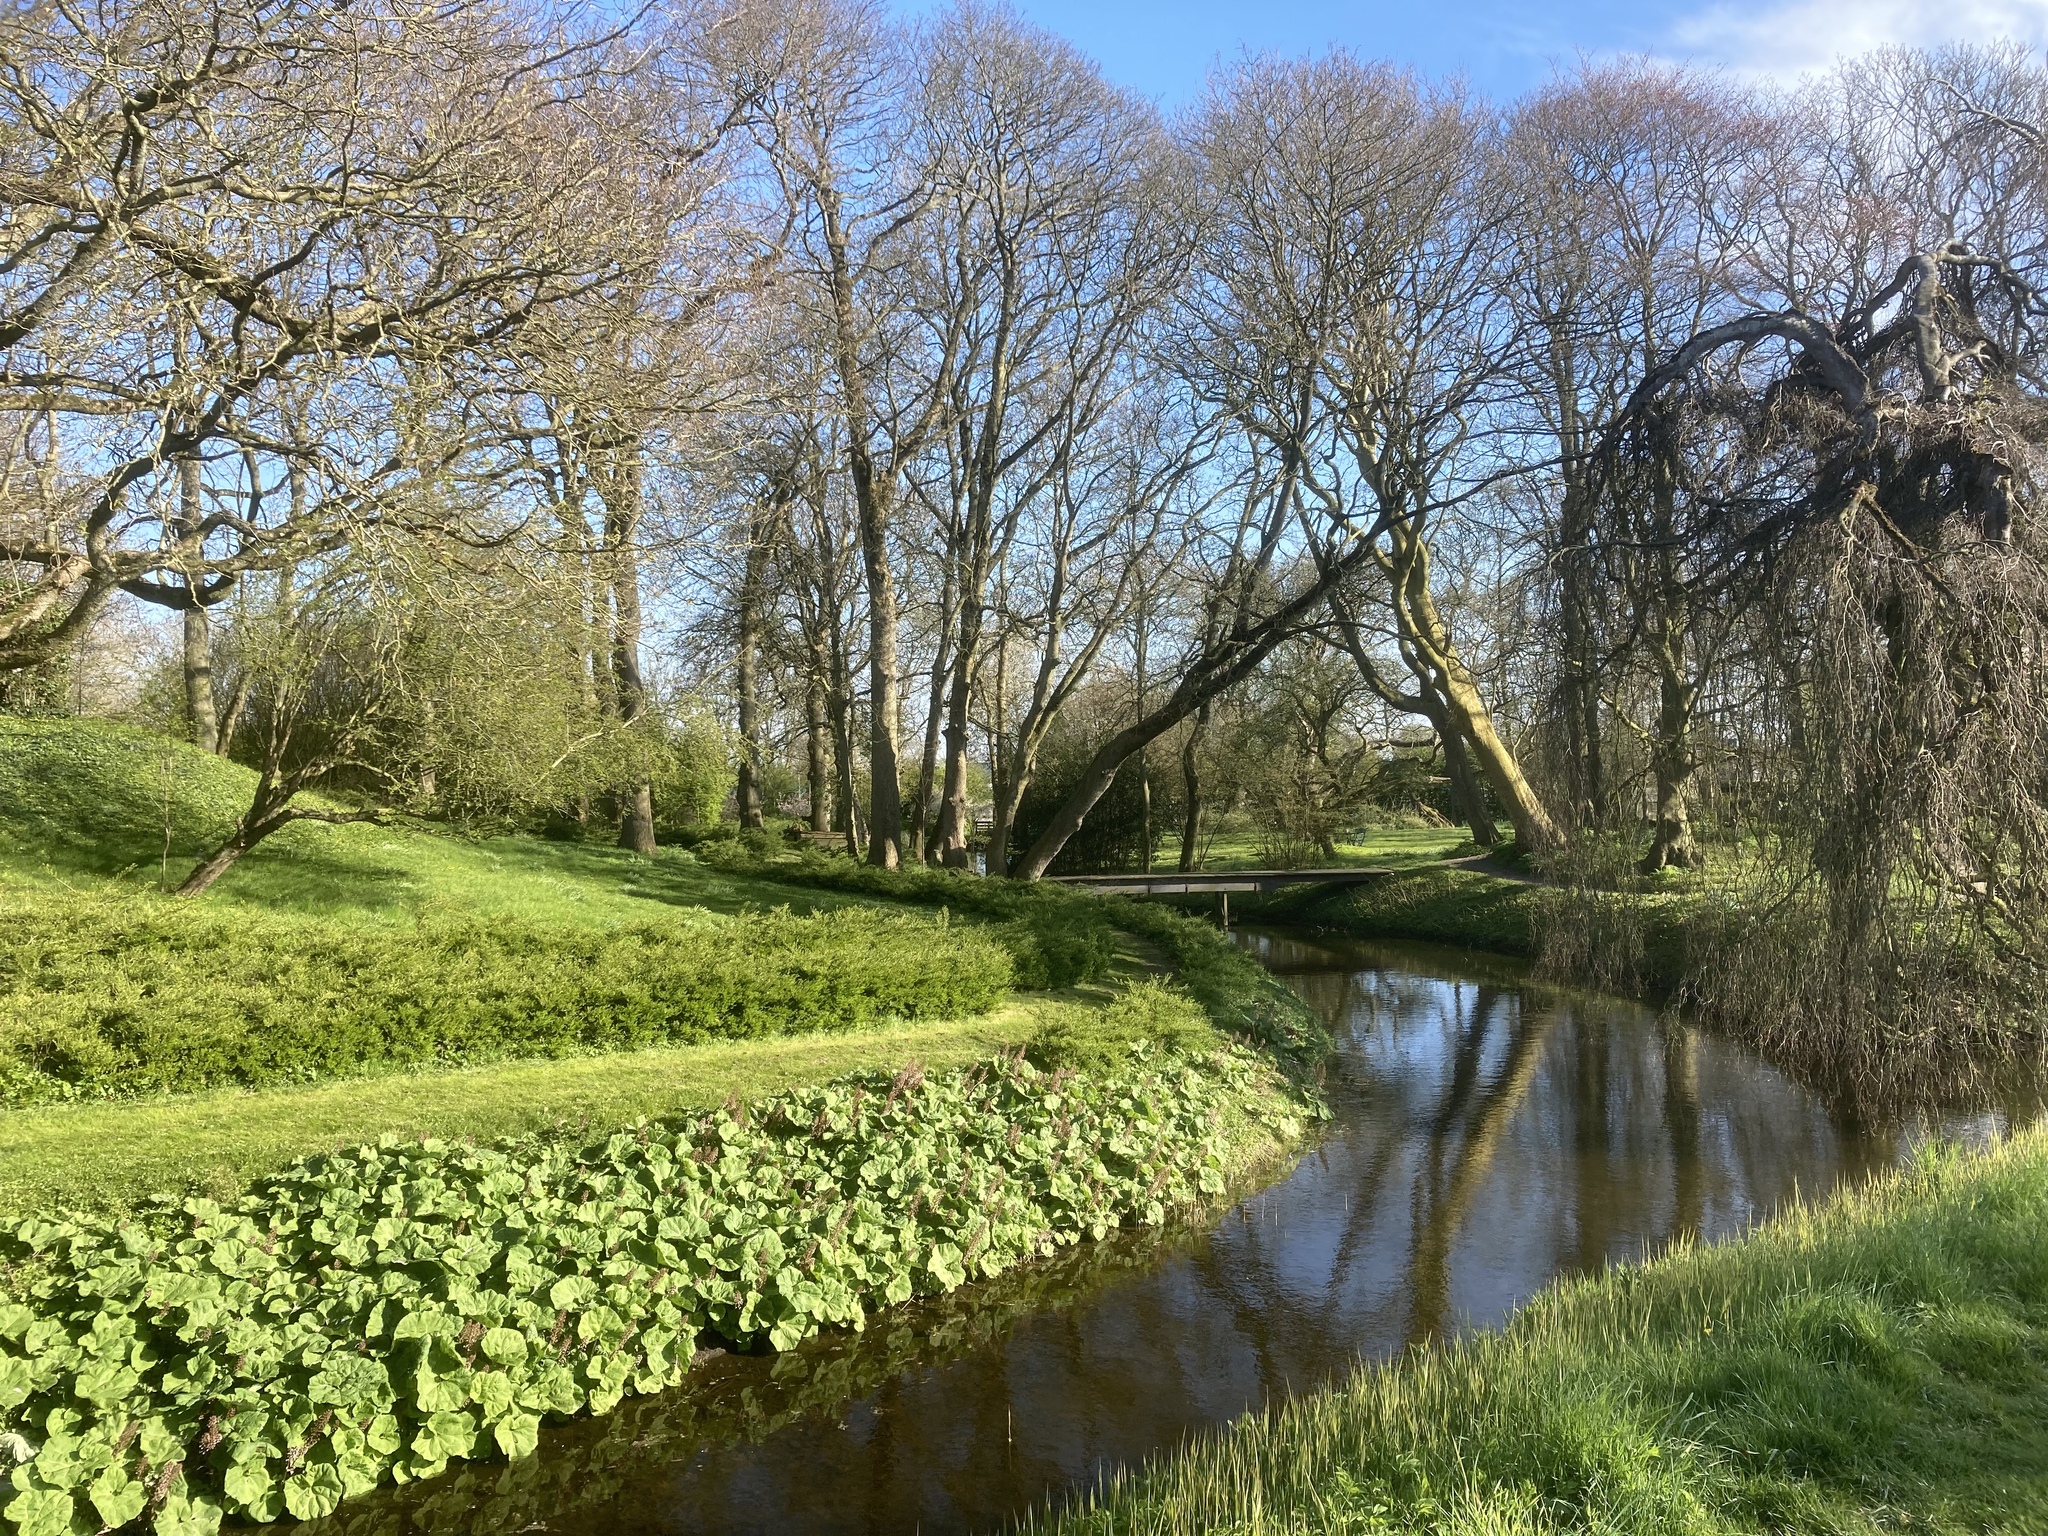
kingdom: Plantae
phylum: Tracheophyta
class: Magnoliopsida
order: Asterales
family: Asteraceae
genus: Petasites
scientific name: Petasites hybridus
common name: Butterbur
